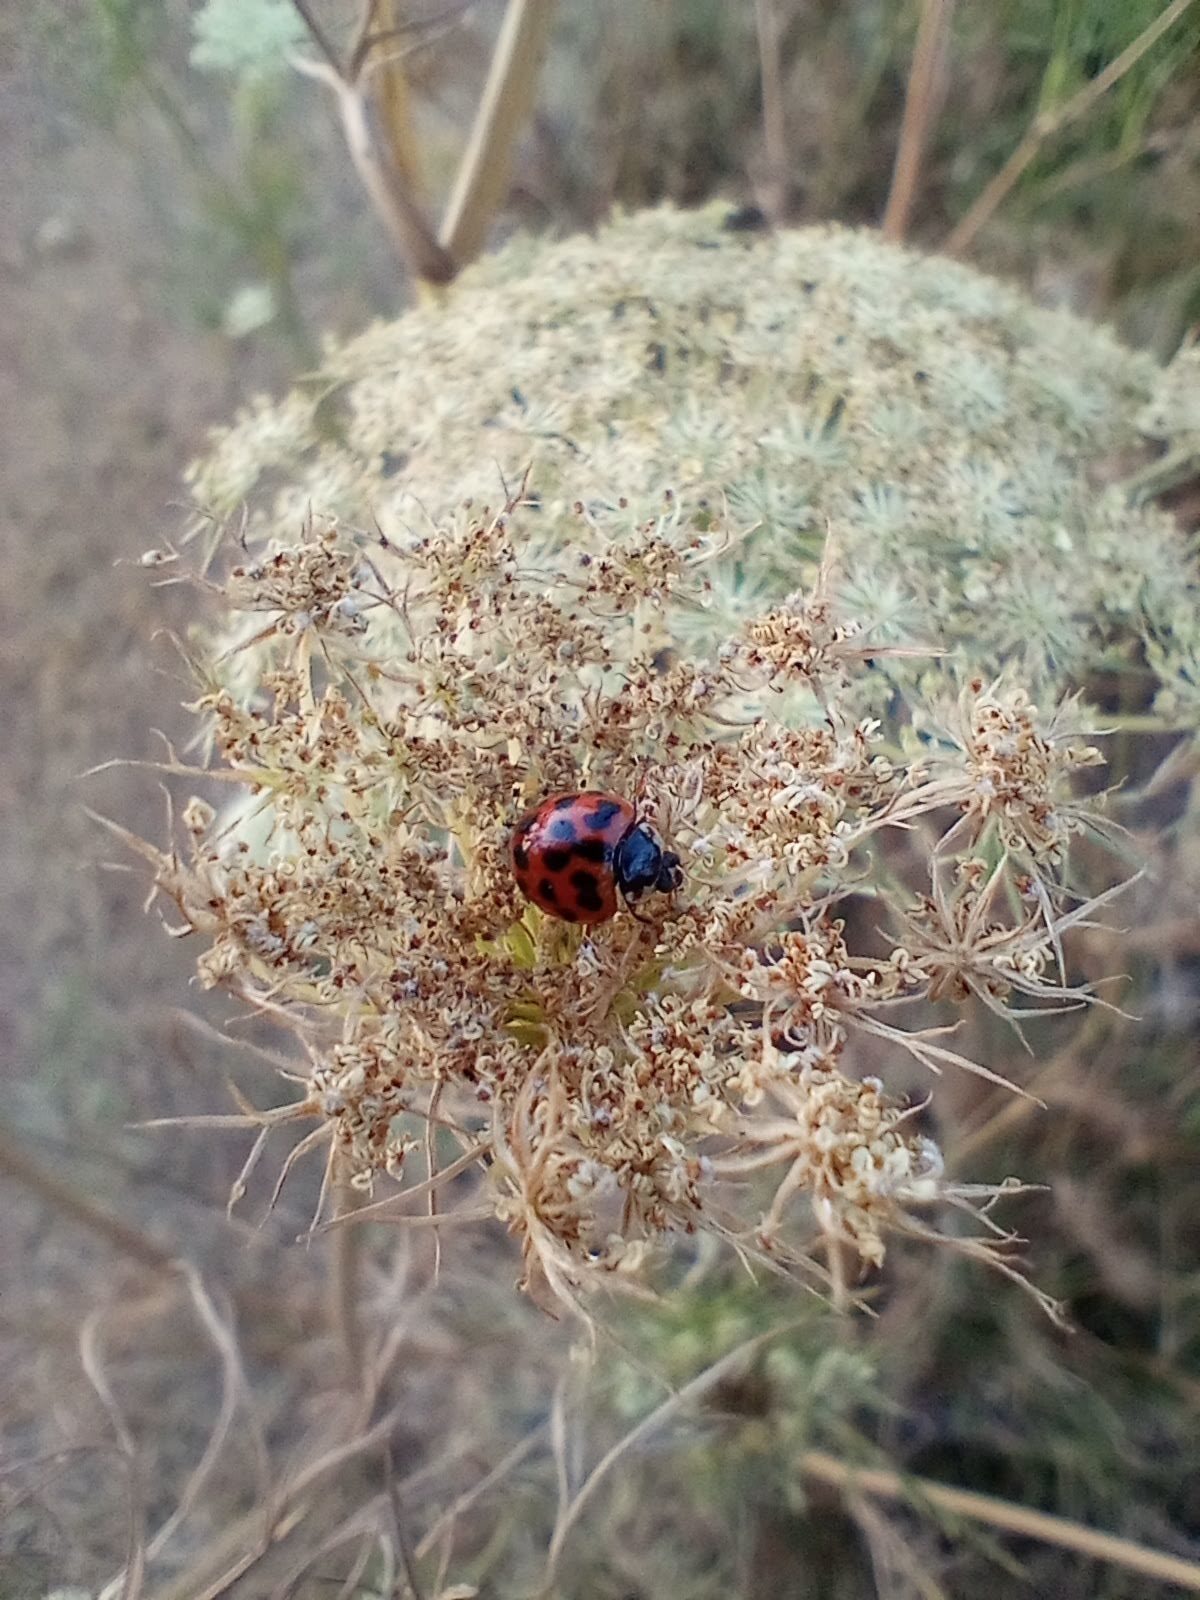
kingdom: Animalia
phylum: Arthropoda
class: Insecta
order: Coleoptera
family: Coccinellidae
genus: Harmonia
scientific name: Harmonia axyridis
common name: Harlequin ladybird
